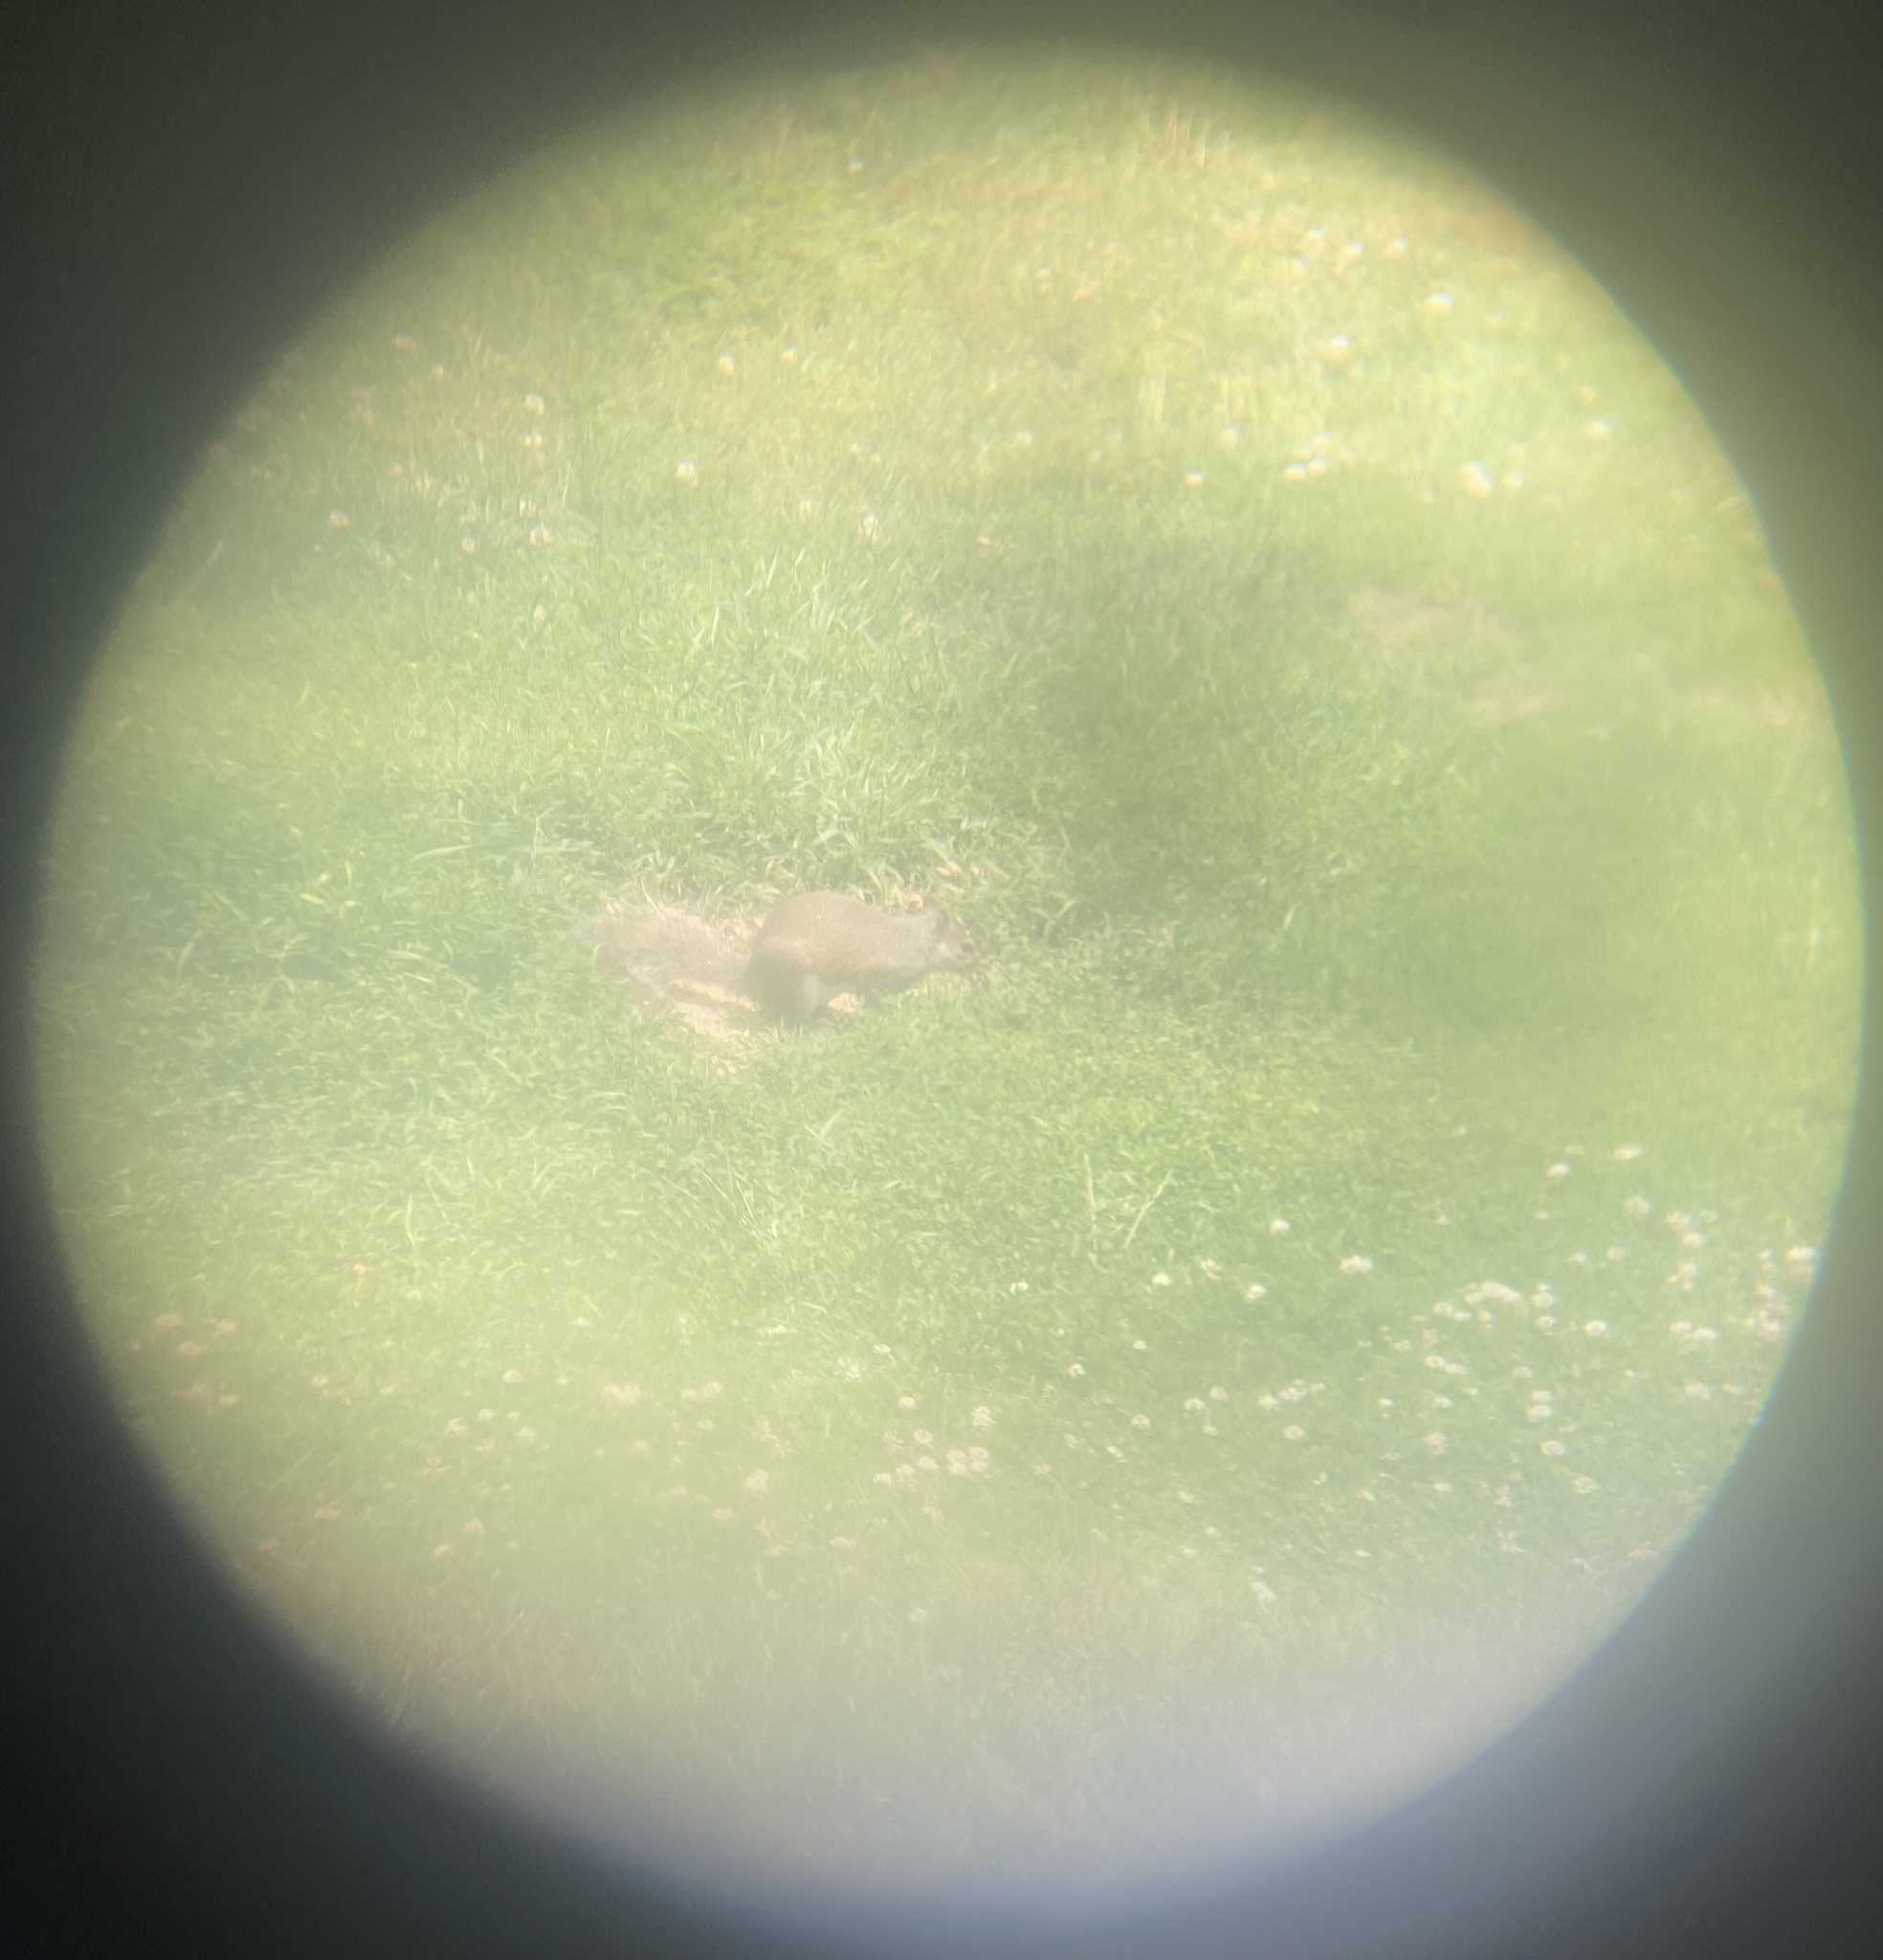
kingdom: Animalia
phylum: Chordata
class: Mammalia
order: Rodentia
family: Sciuridae
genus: Sciurus
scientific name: Sciurus carolinensis
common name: Eastern gray squirrel
